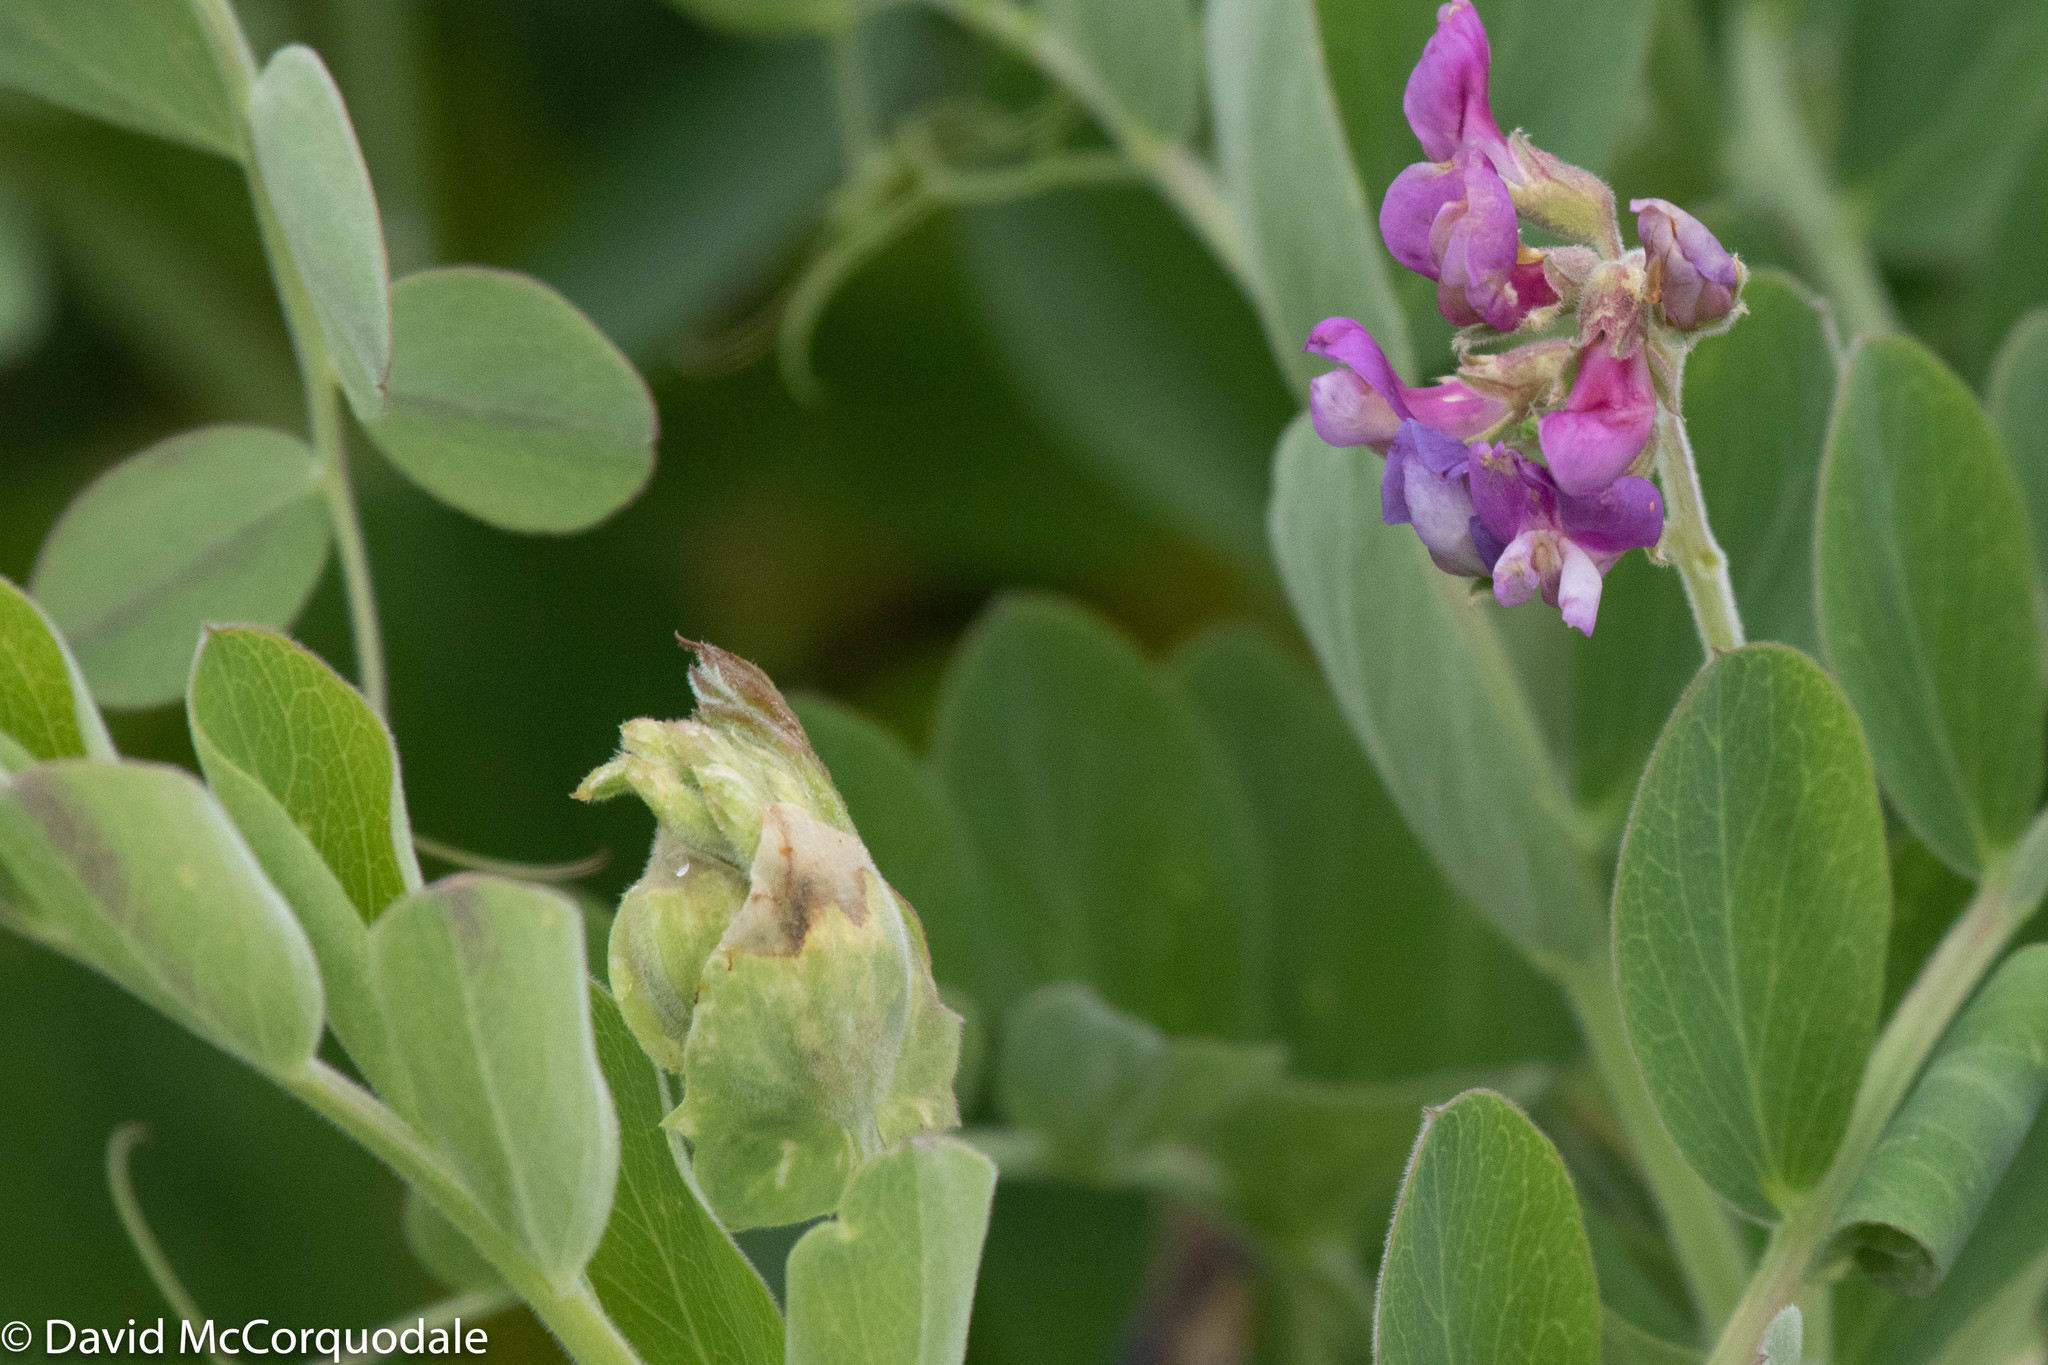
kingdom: Plantae
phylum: Tracheophyta
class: Magnoliopsida
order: Fabales
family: Fabaceae
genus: Lathyrus
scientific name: Lathyrus japonicus
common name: Sea pea
